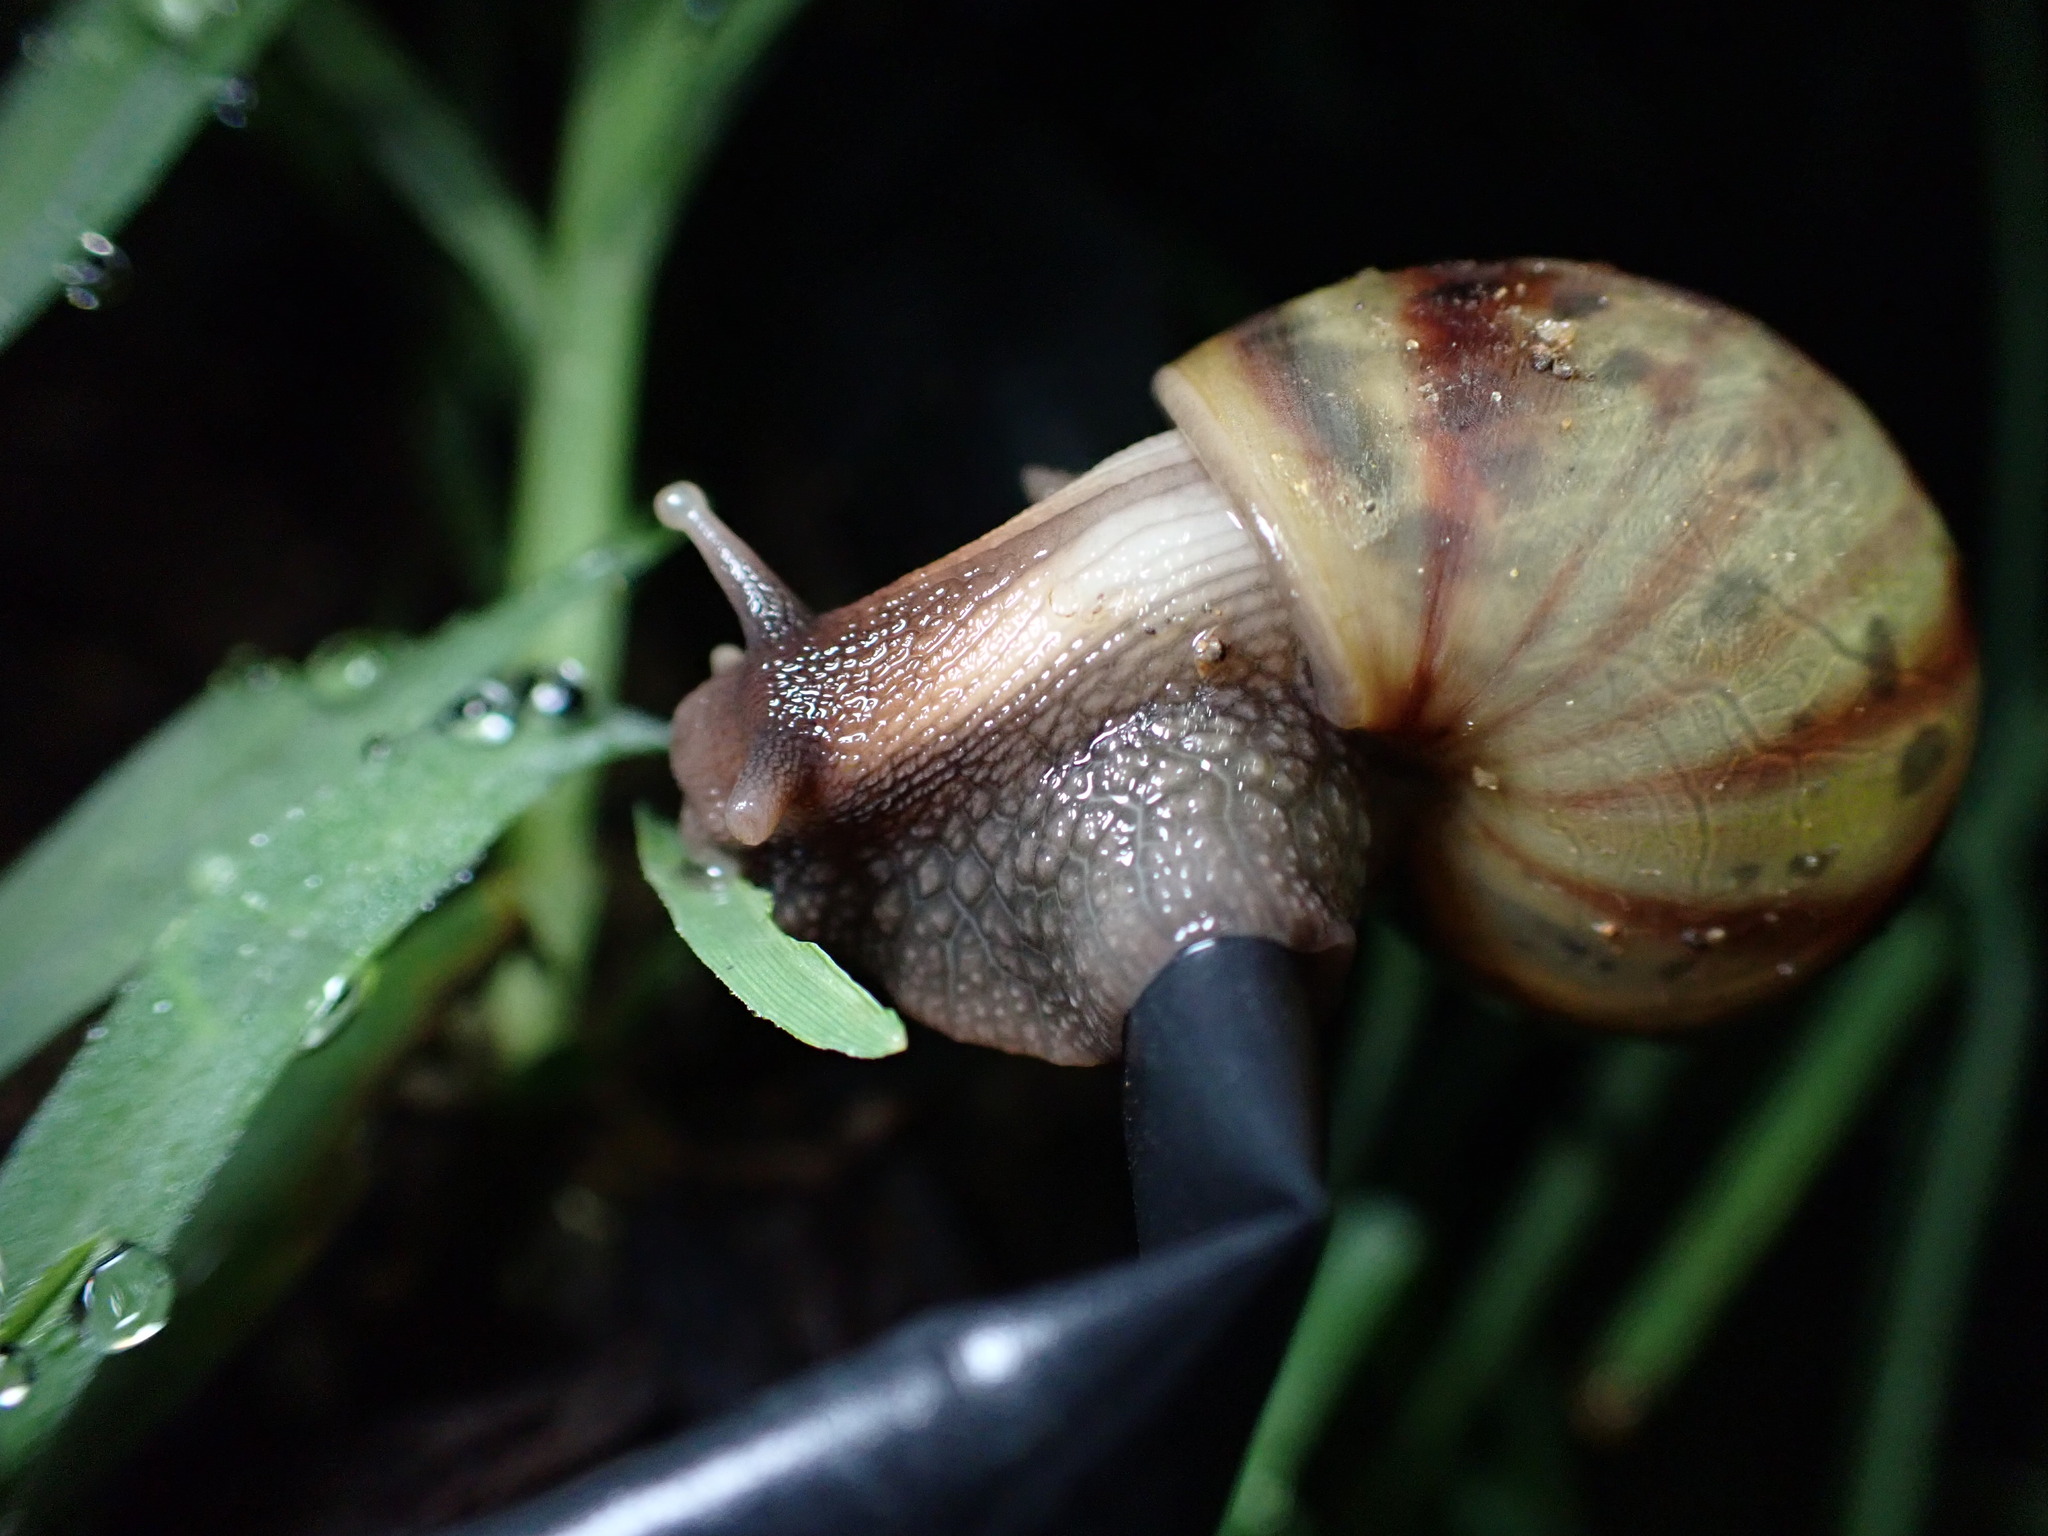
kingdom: Animalia
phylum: Mollusca
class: Gastropoda
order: Stylommatophora
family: Achatinidae
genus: Lissachatina
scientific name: Lissachatina fulica
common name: Giant african snail
